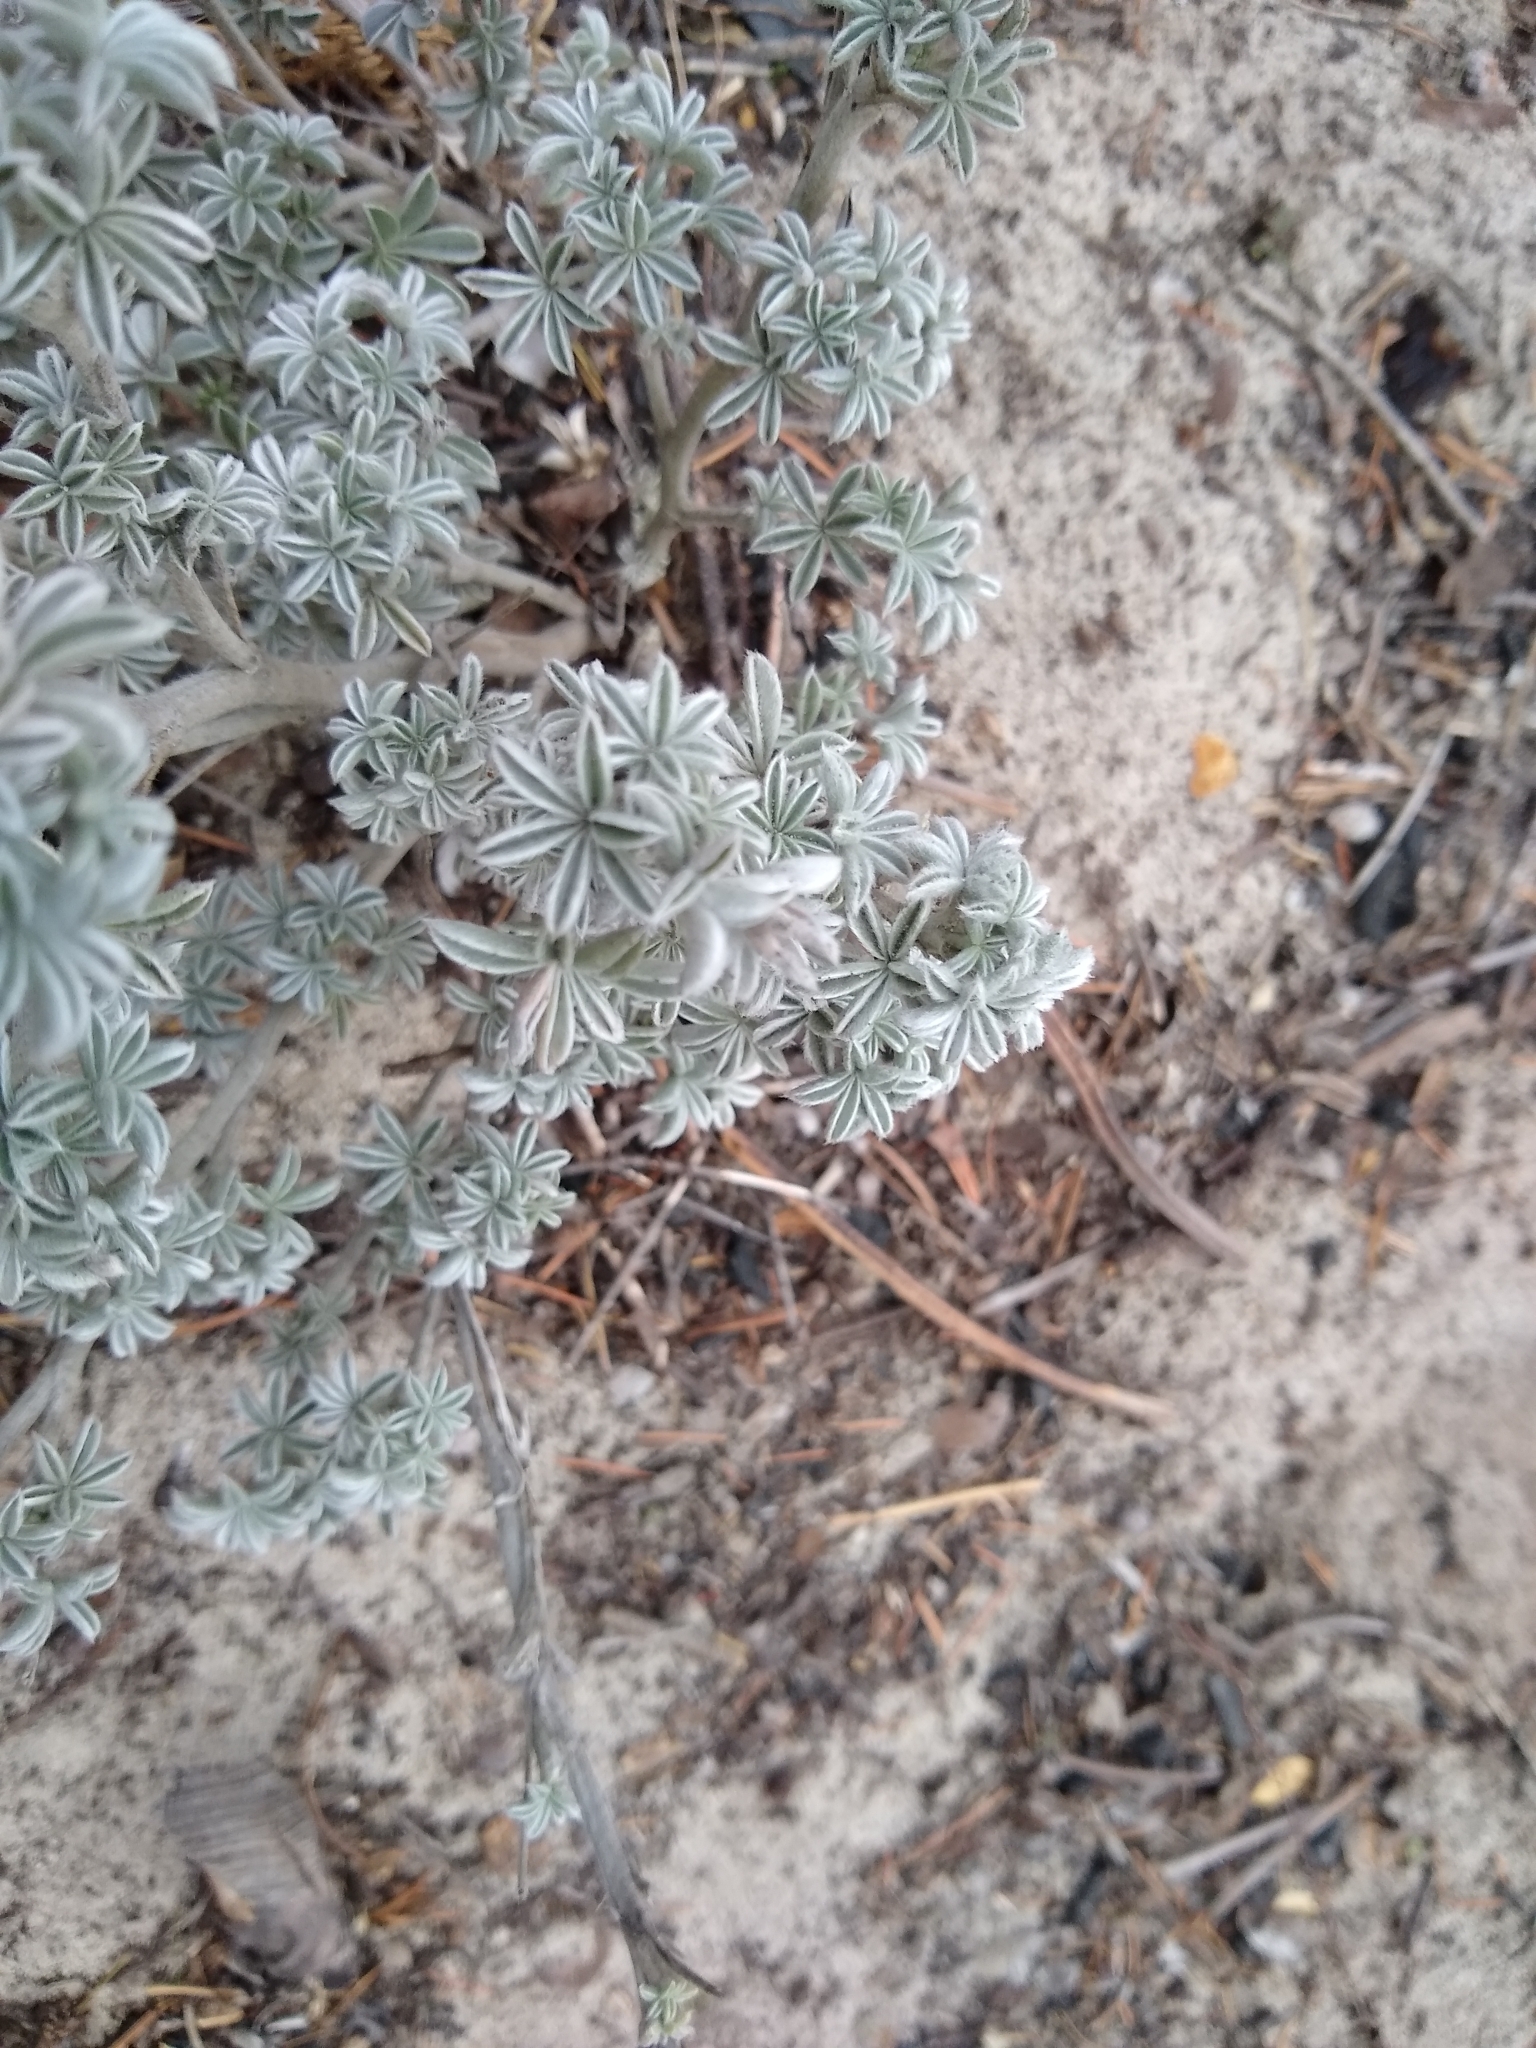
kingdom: Plantae
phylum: Tracheophyta
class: Magnoliopsida
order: Fabales
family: Fabaceae
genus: Lupinus
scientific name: Lupinus albifrons
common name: Foothill lupine
